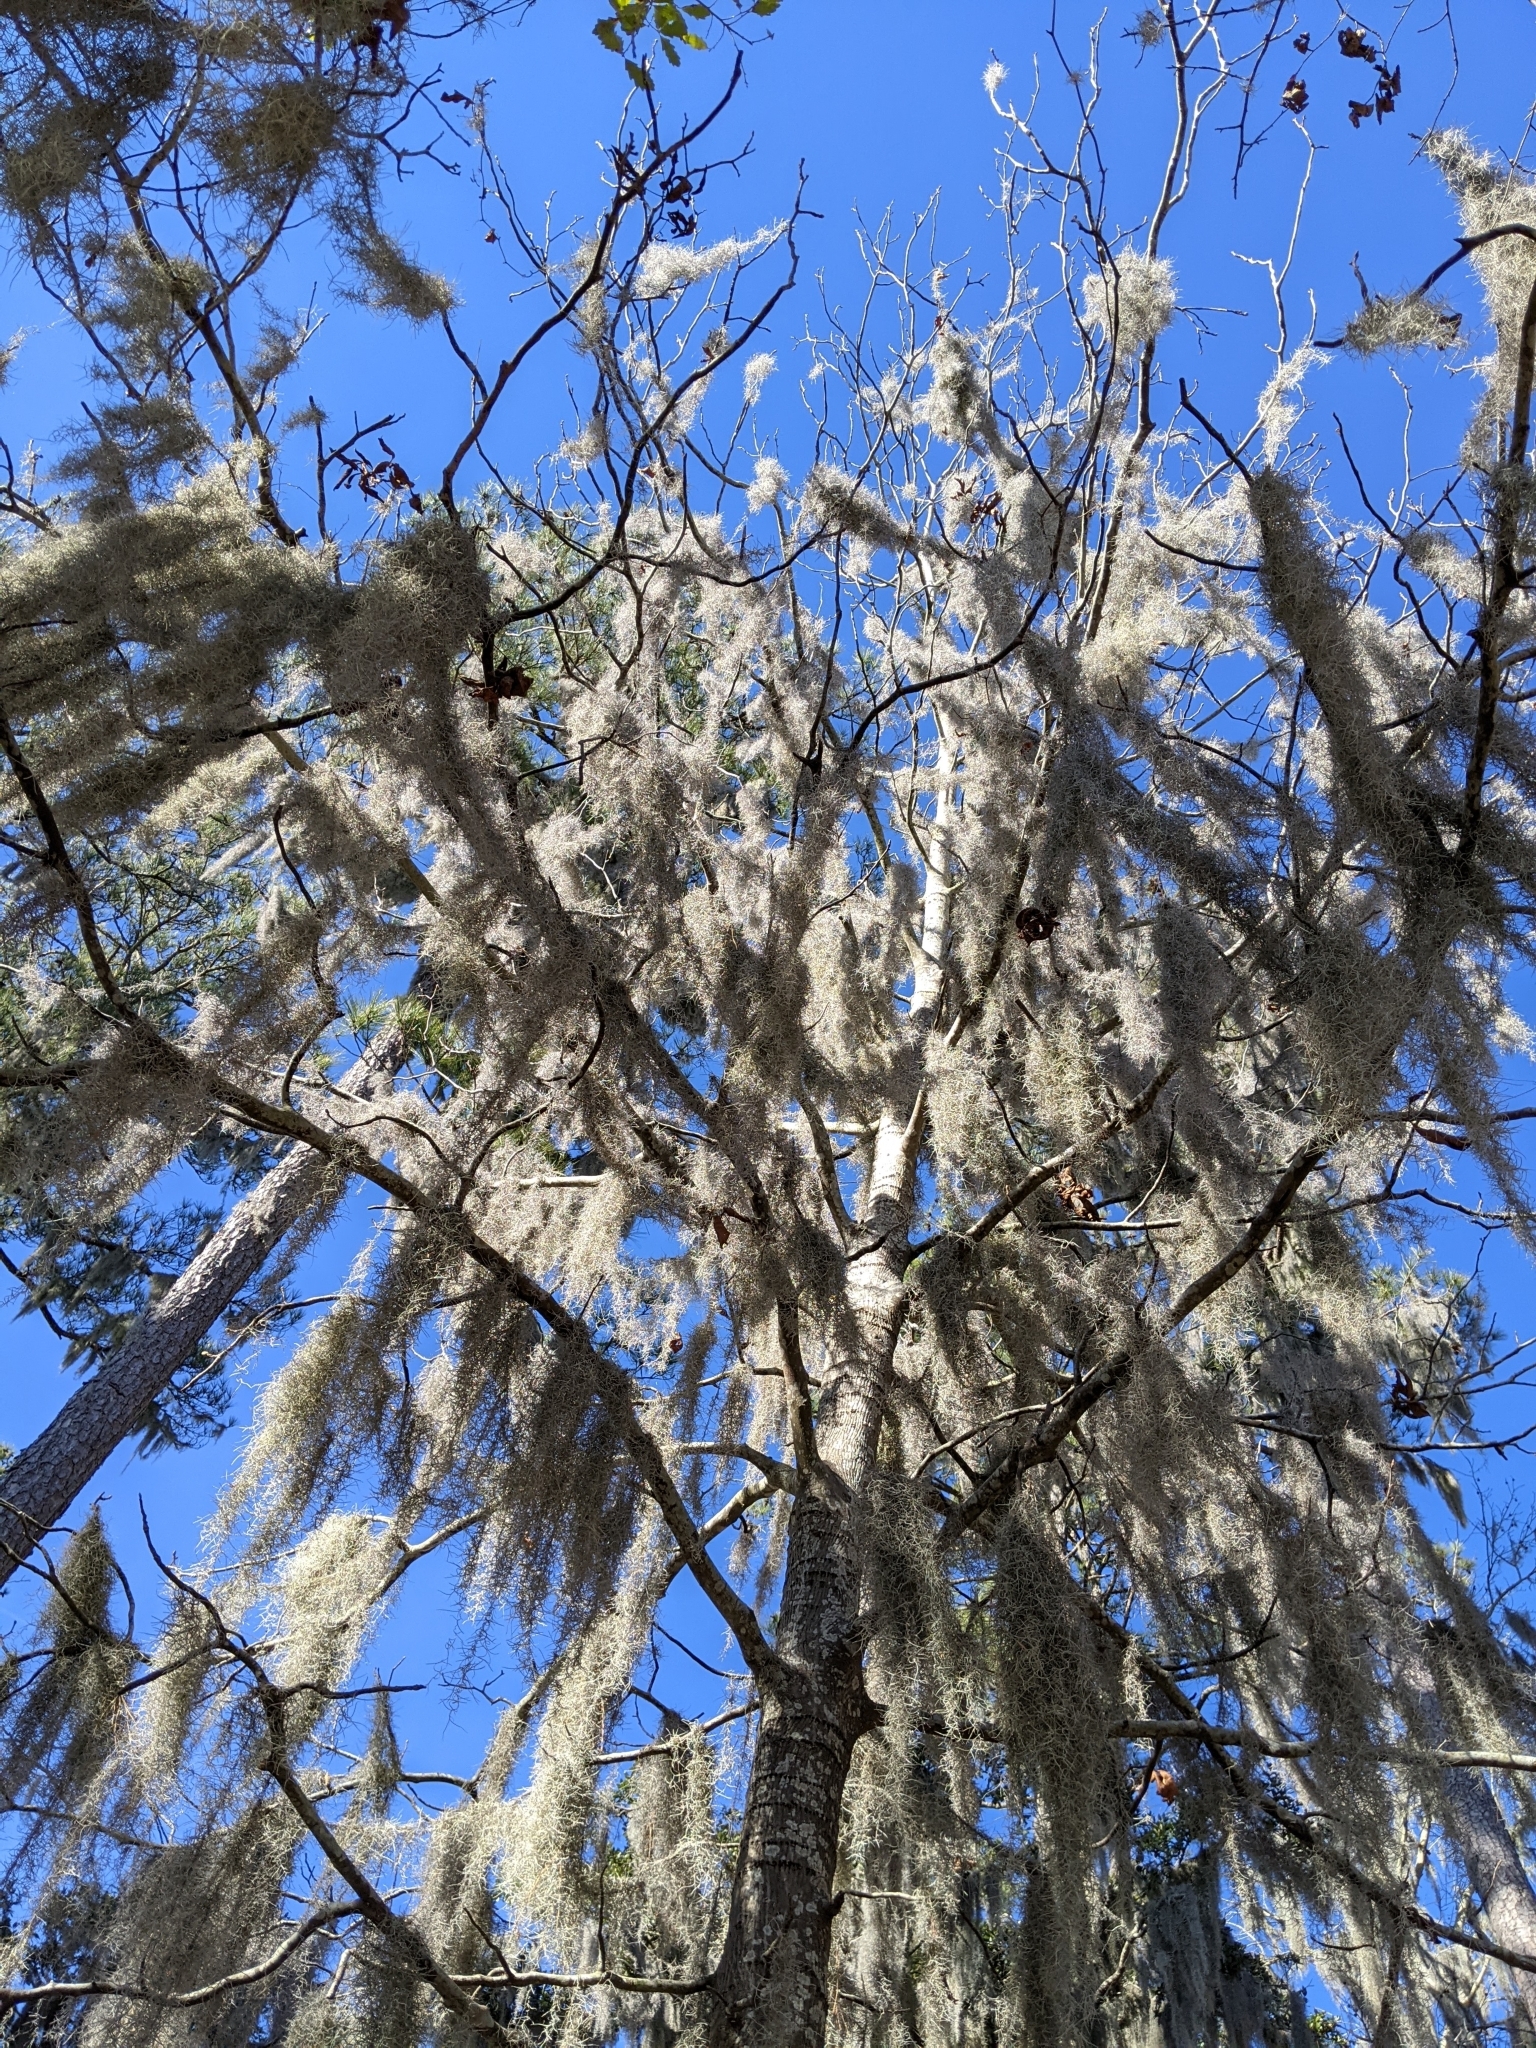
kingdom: Plantae
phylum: Tracheophyta
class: Liliopsida
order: Poales
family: Bromeliaceae
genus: Tillandsia
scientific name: Tillandsia usneoides
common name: Spanish moss
